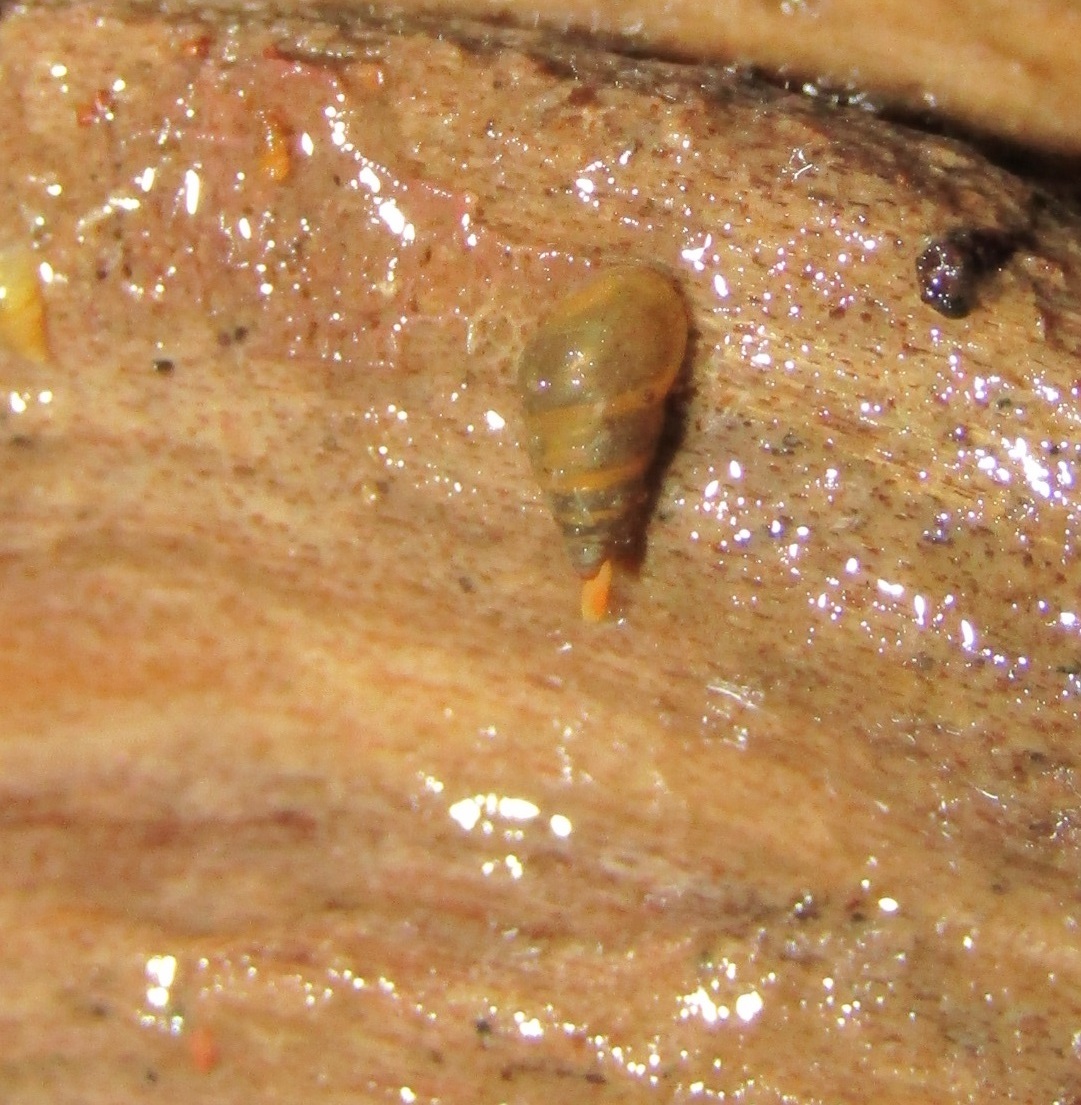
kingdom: Animalia
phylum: Mollusca
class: Gastropoda
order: Littorinimorpha
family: Tateidae
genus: Potamopyrgus
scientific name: Potamopyrgus antipodarum
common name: Jenkins' spire snail
